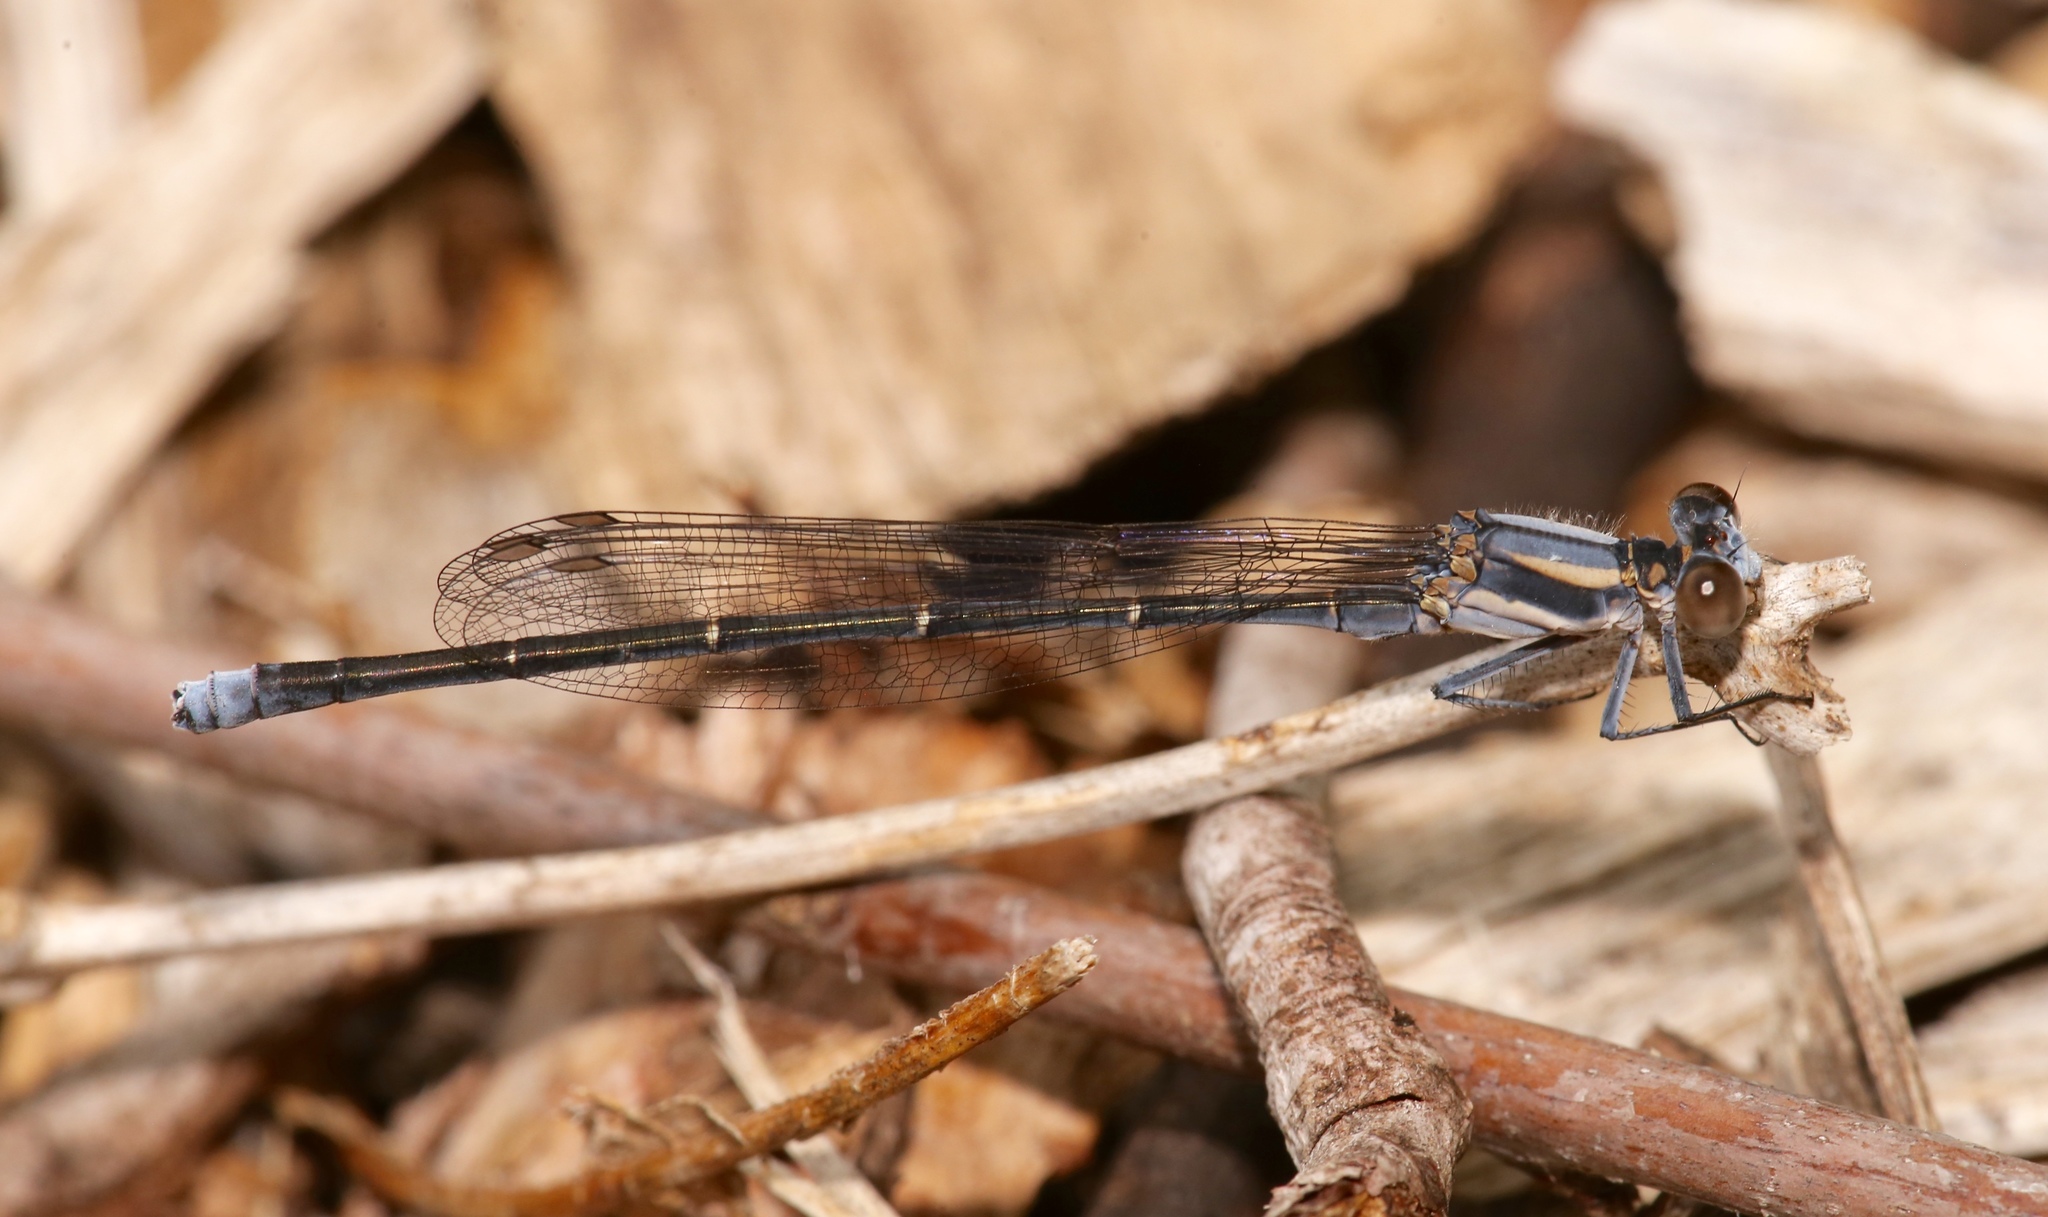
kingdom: Animalia
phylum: Arthropoda
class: Insecta
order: Odonata
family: Coenagrionidae
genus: Argia
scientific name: Argia moesta
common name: Powdered dancer
